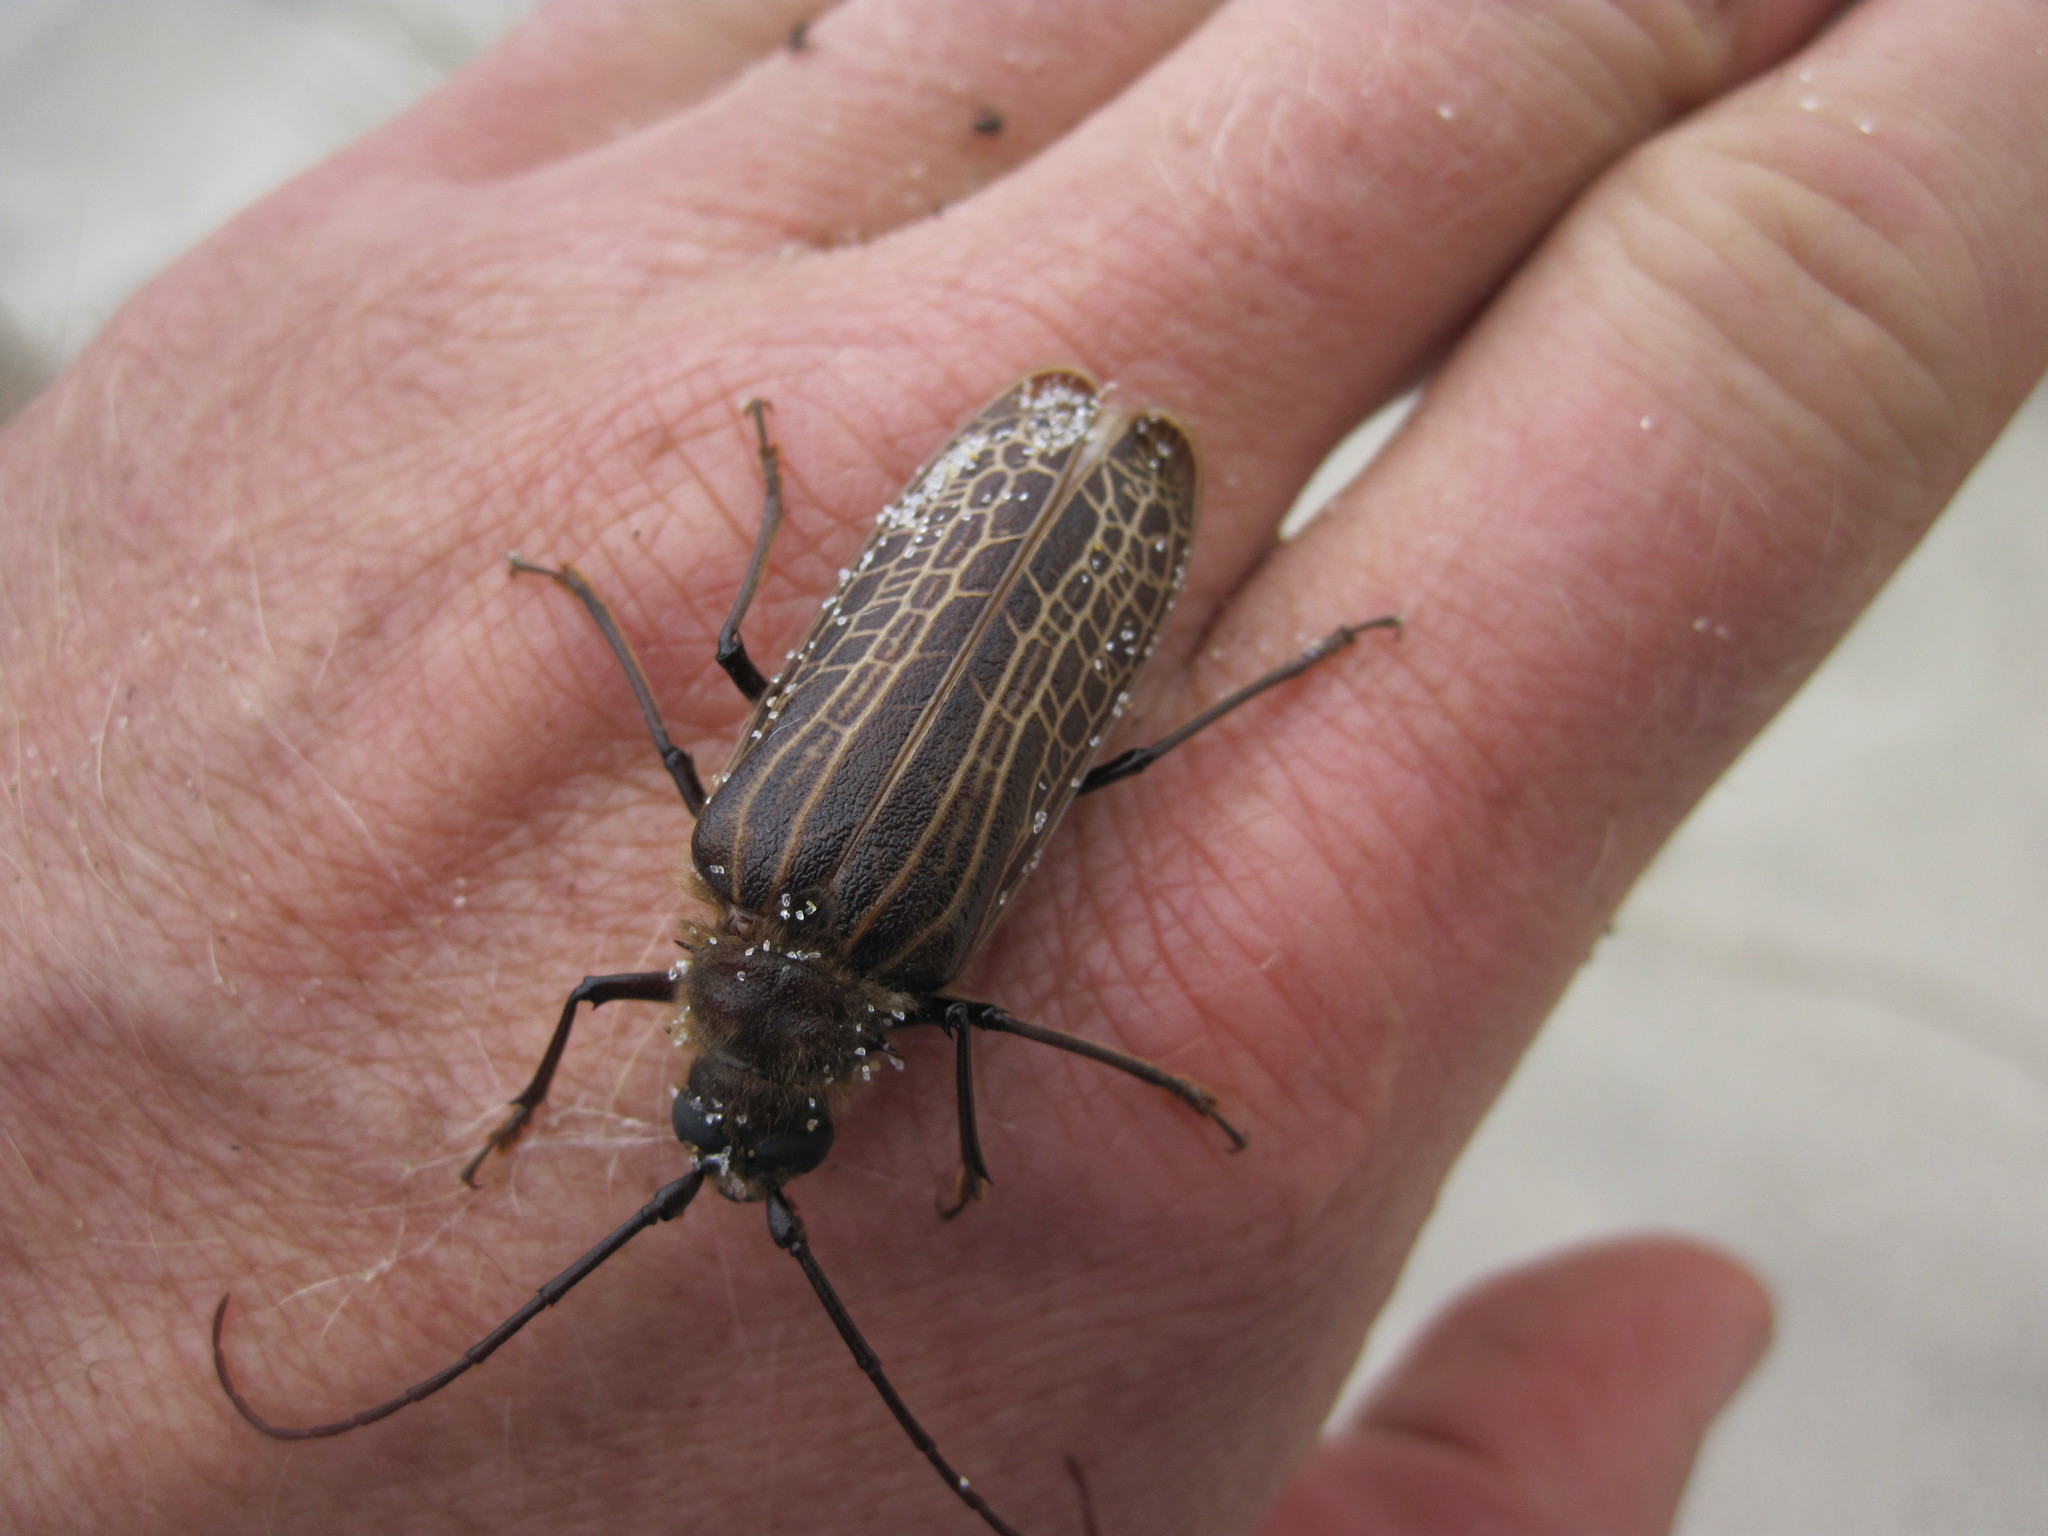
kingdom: Animalia
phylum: Arthropoda
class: Insecta
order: Coleoptera
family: Cerambycidae
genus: Prionoplus
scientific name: Prionoplus reticularis
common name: Huhu beetle
